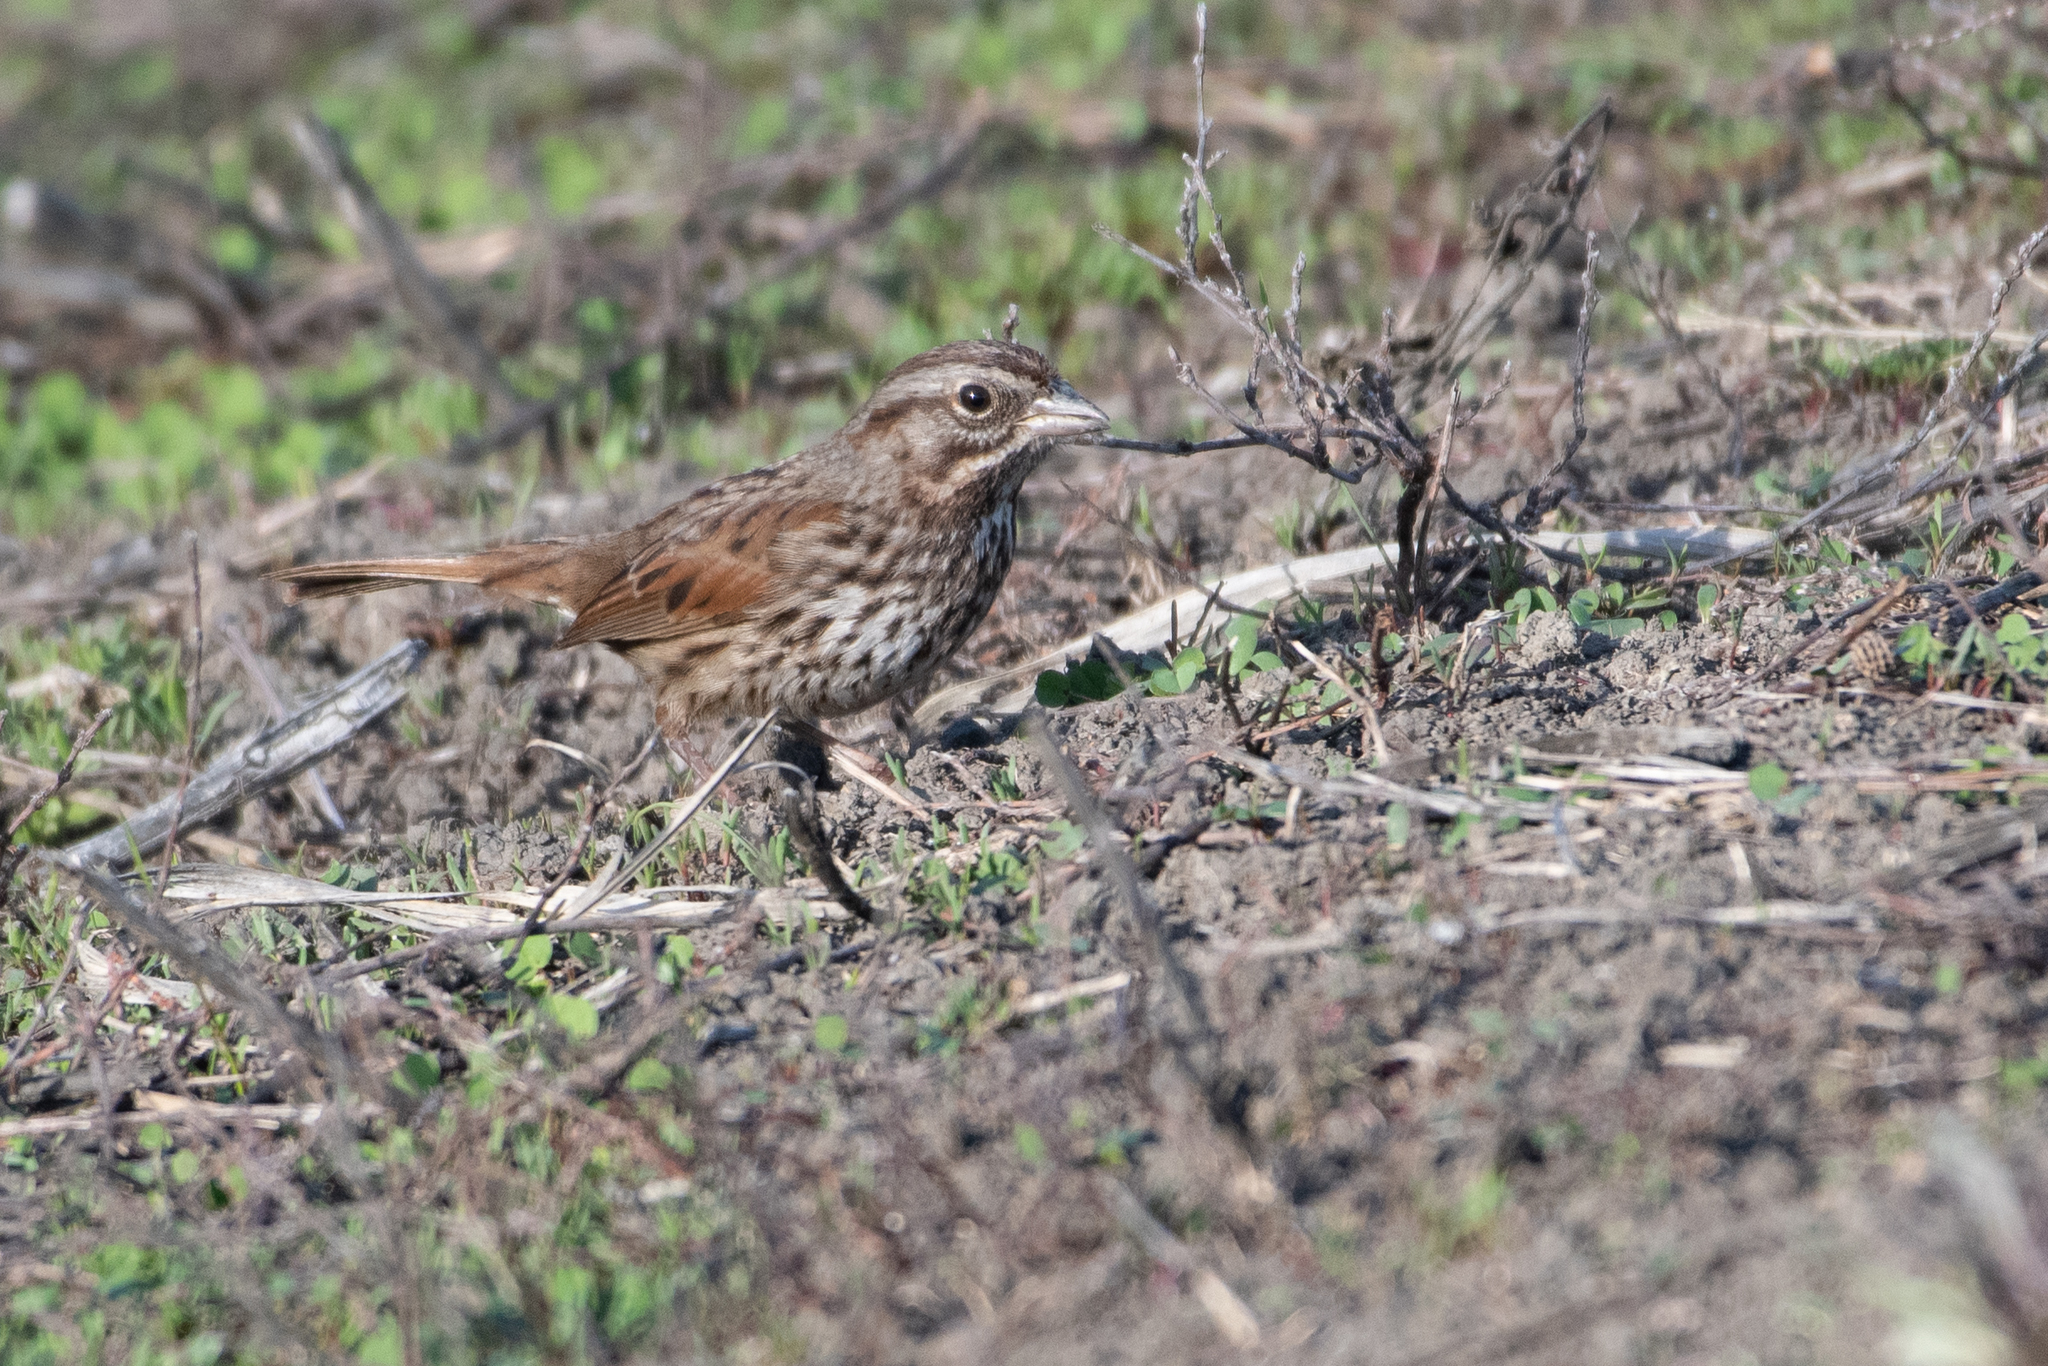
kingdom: Animalia
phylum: Chordata
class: Aves
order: Passeriformes
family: Passerellidae
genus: Melospiza
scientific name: Melospiza melodia
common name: Song sparrow
